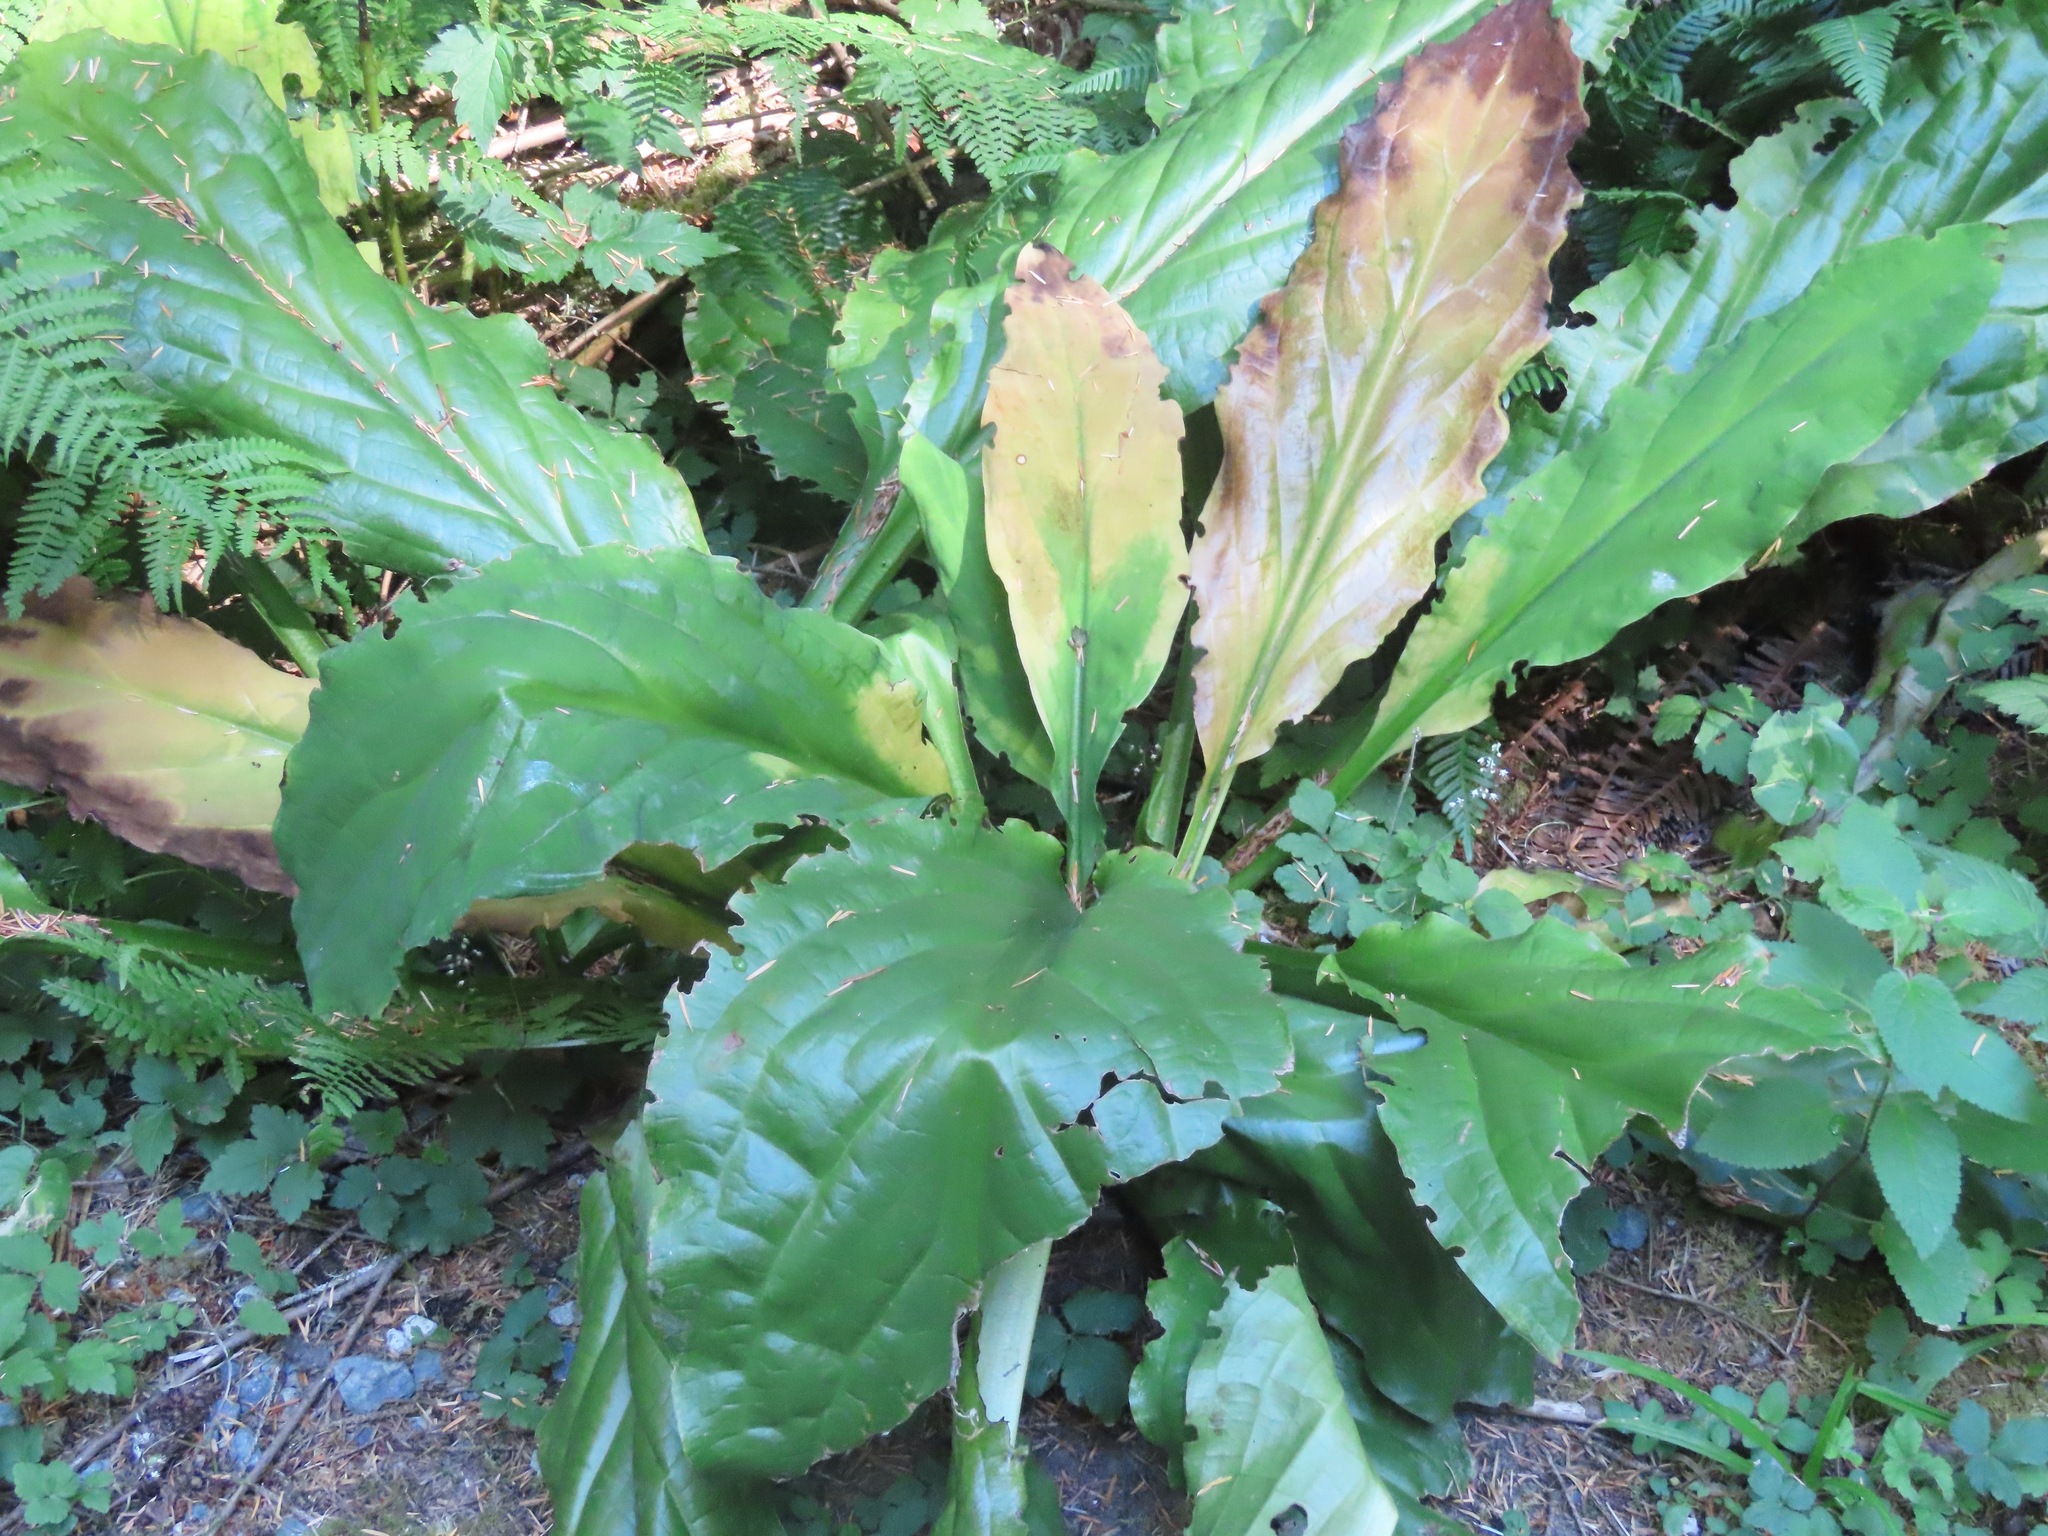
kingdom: Plantae
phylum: Tracheophyta
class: Liliopsida
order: Alismatales
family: Araceae
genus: Lysichiton
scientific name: Lysichiton americanus
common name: American skunk cabbage
